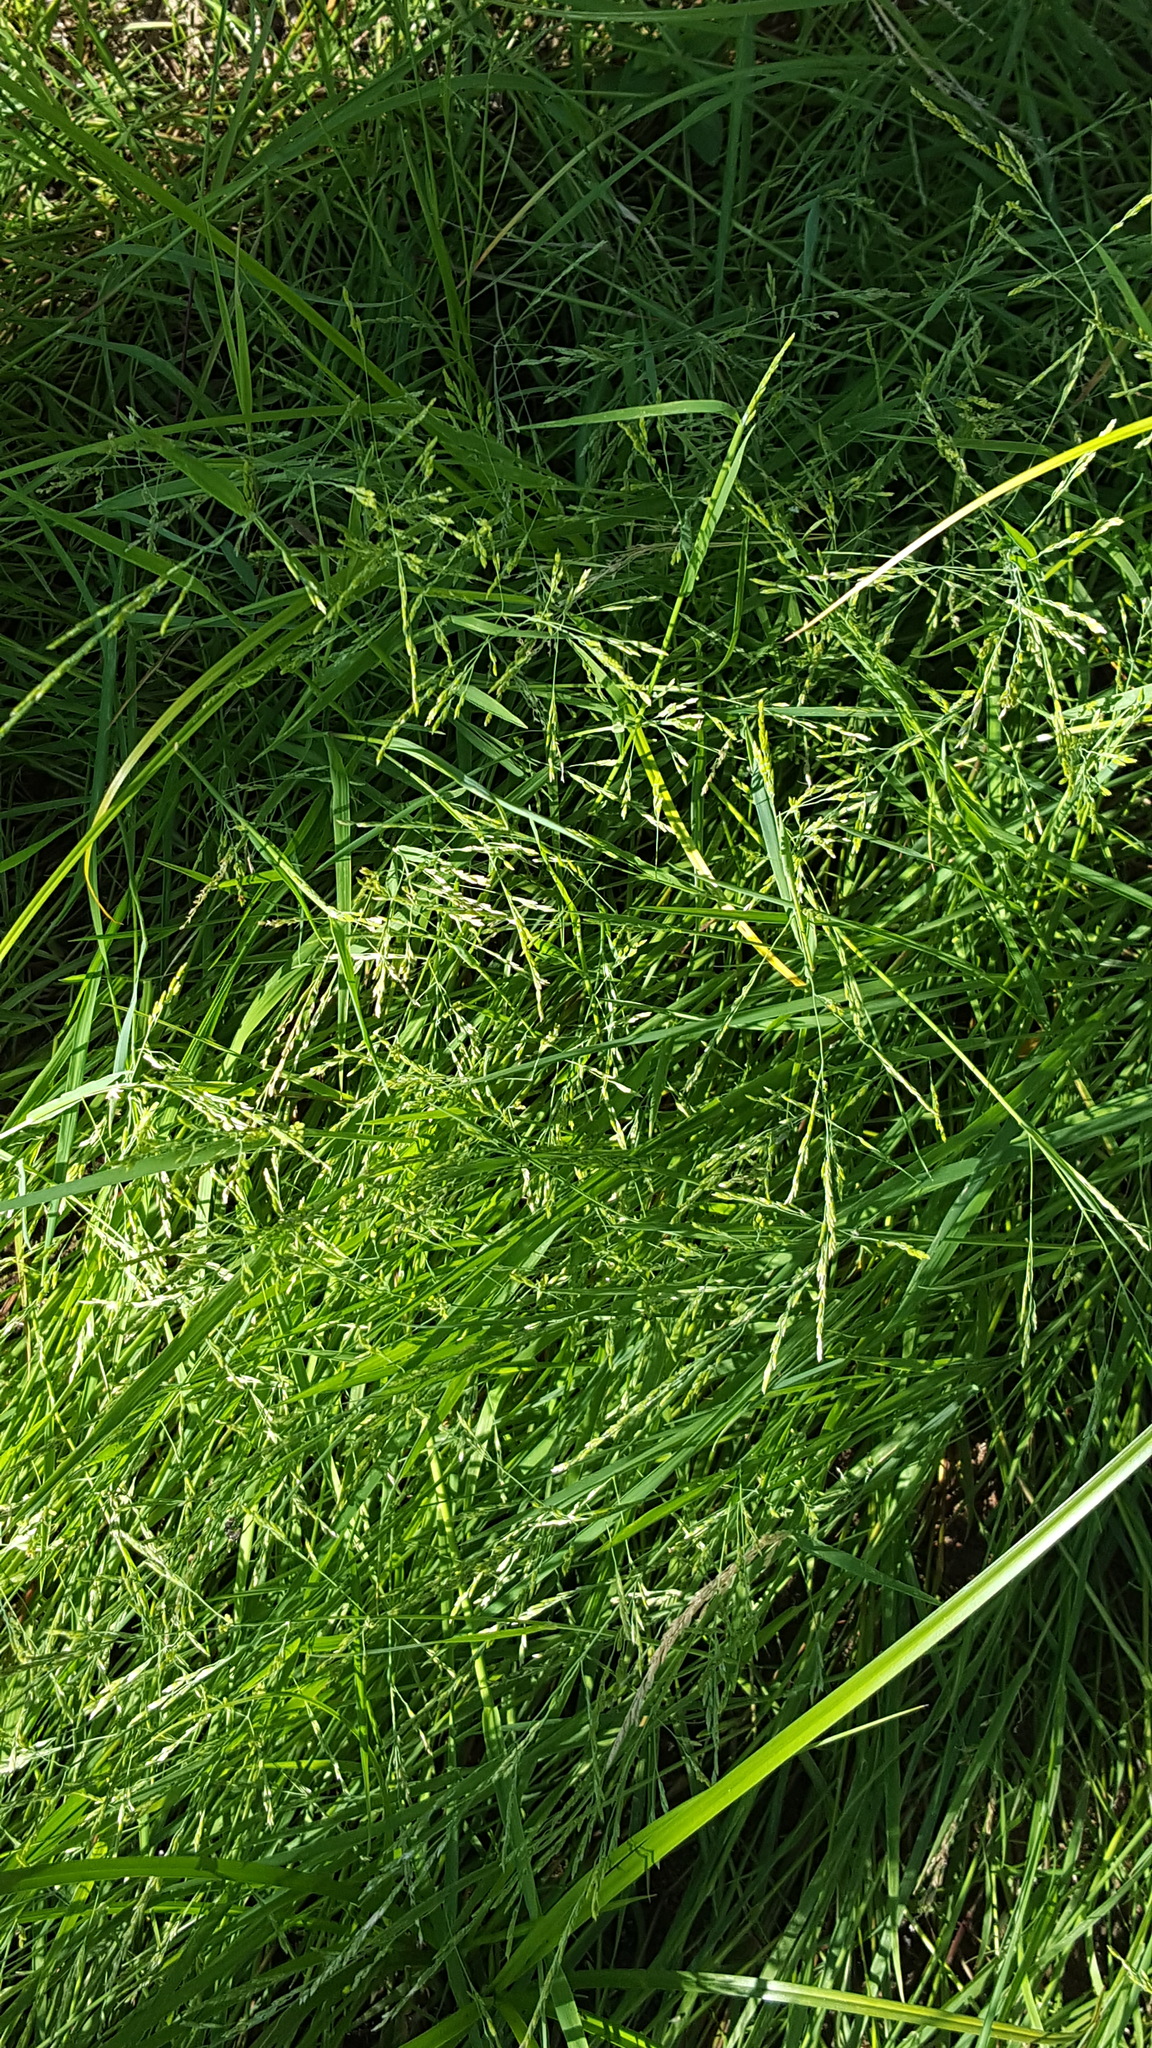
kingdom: Plantae
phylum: Tracheophyta
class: Liliopsida
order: Poales
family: Poaceae
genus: Torreyochloa
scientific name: Torreyochloa pallida
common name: Pale false mannagrass
